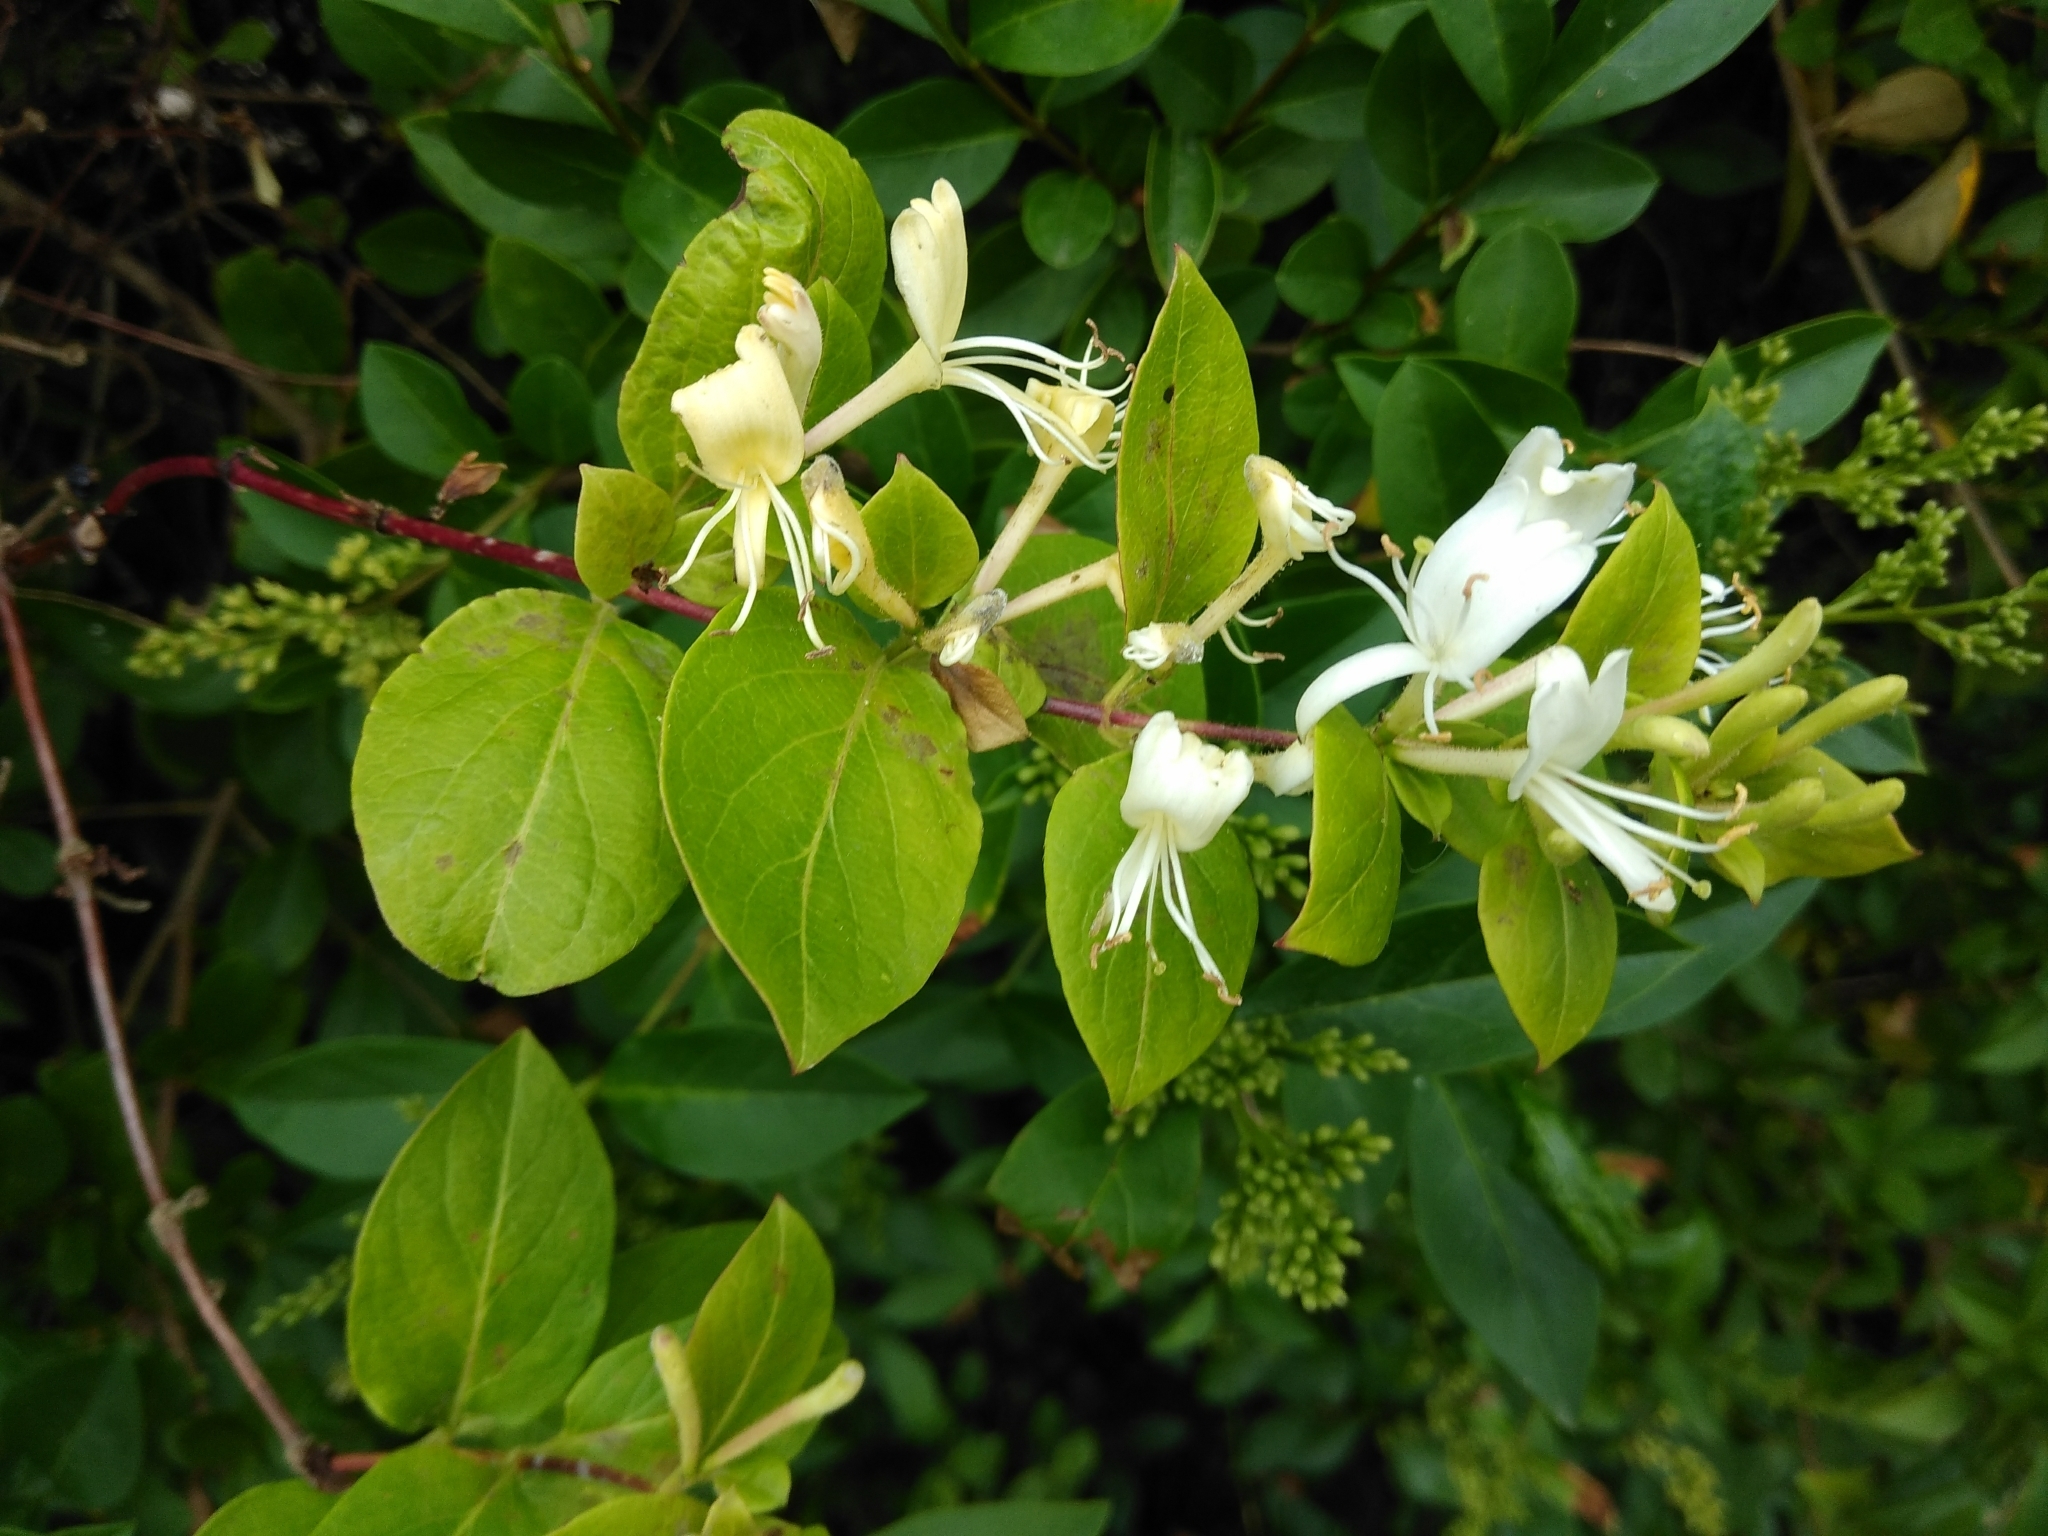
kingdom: Plantae
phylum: Tracheophyta
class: Magnoliopsida
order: Dipsacales
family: Caprifoliaceae
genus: Lonicera
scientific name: Lonicera japonica
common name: Japanese honeysuckle
